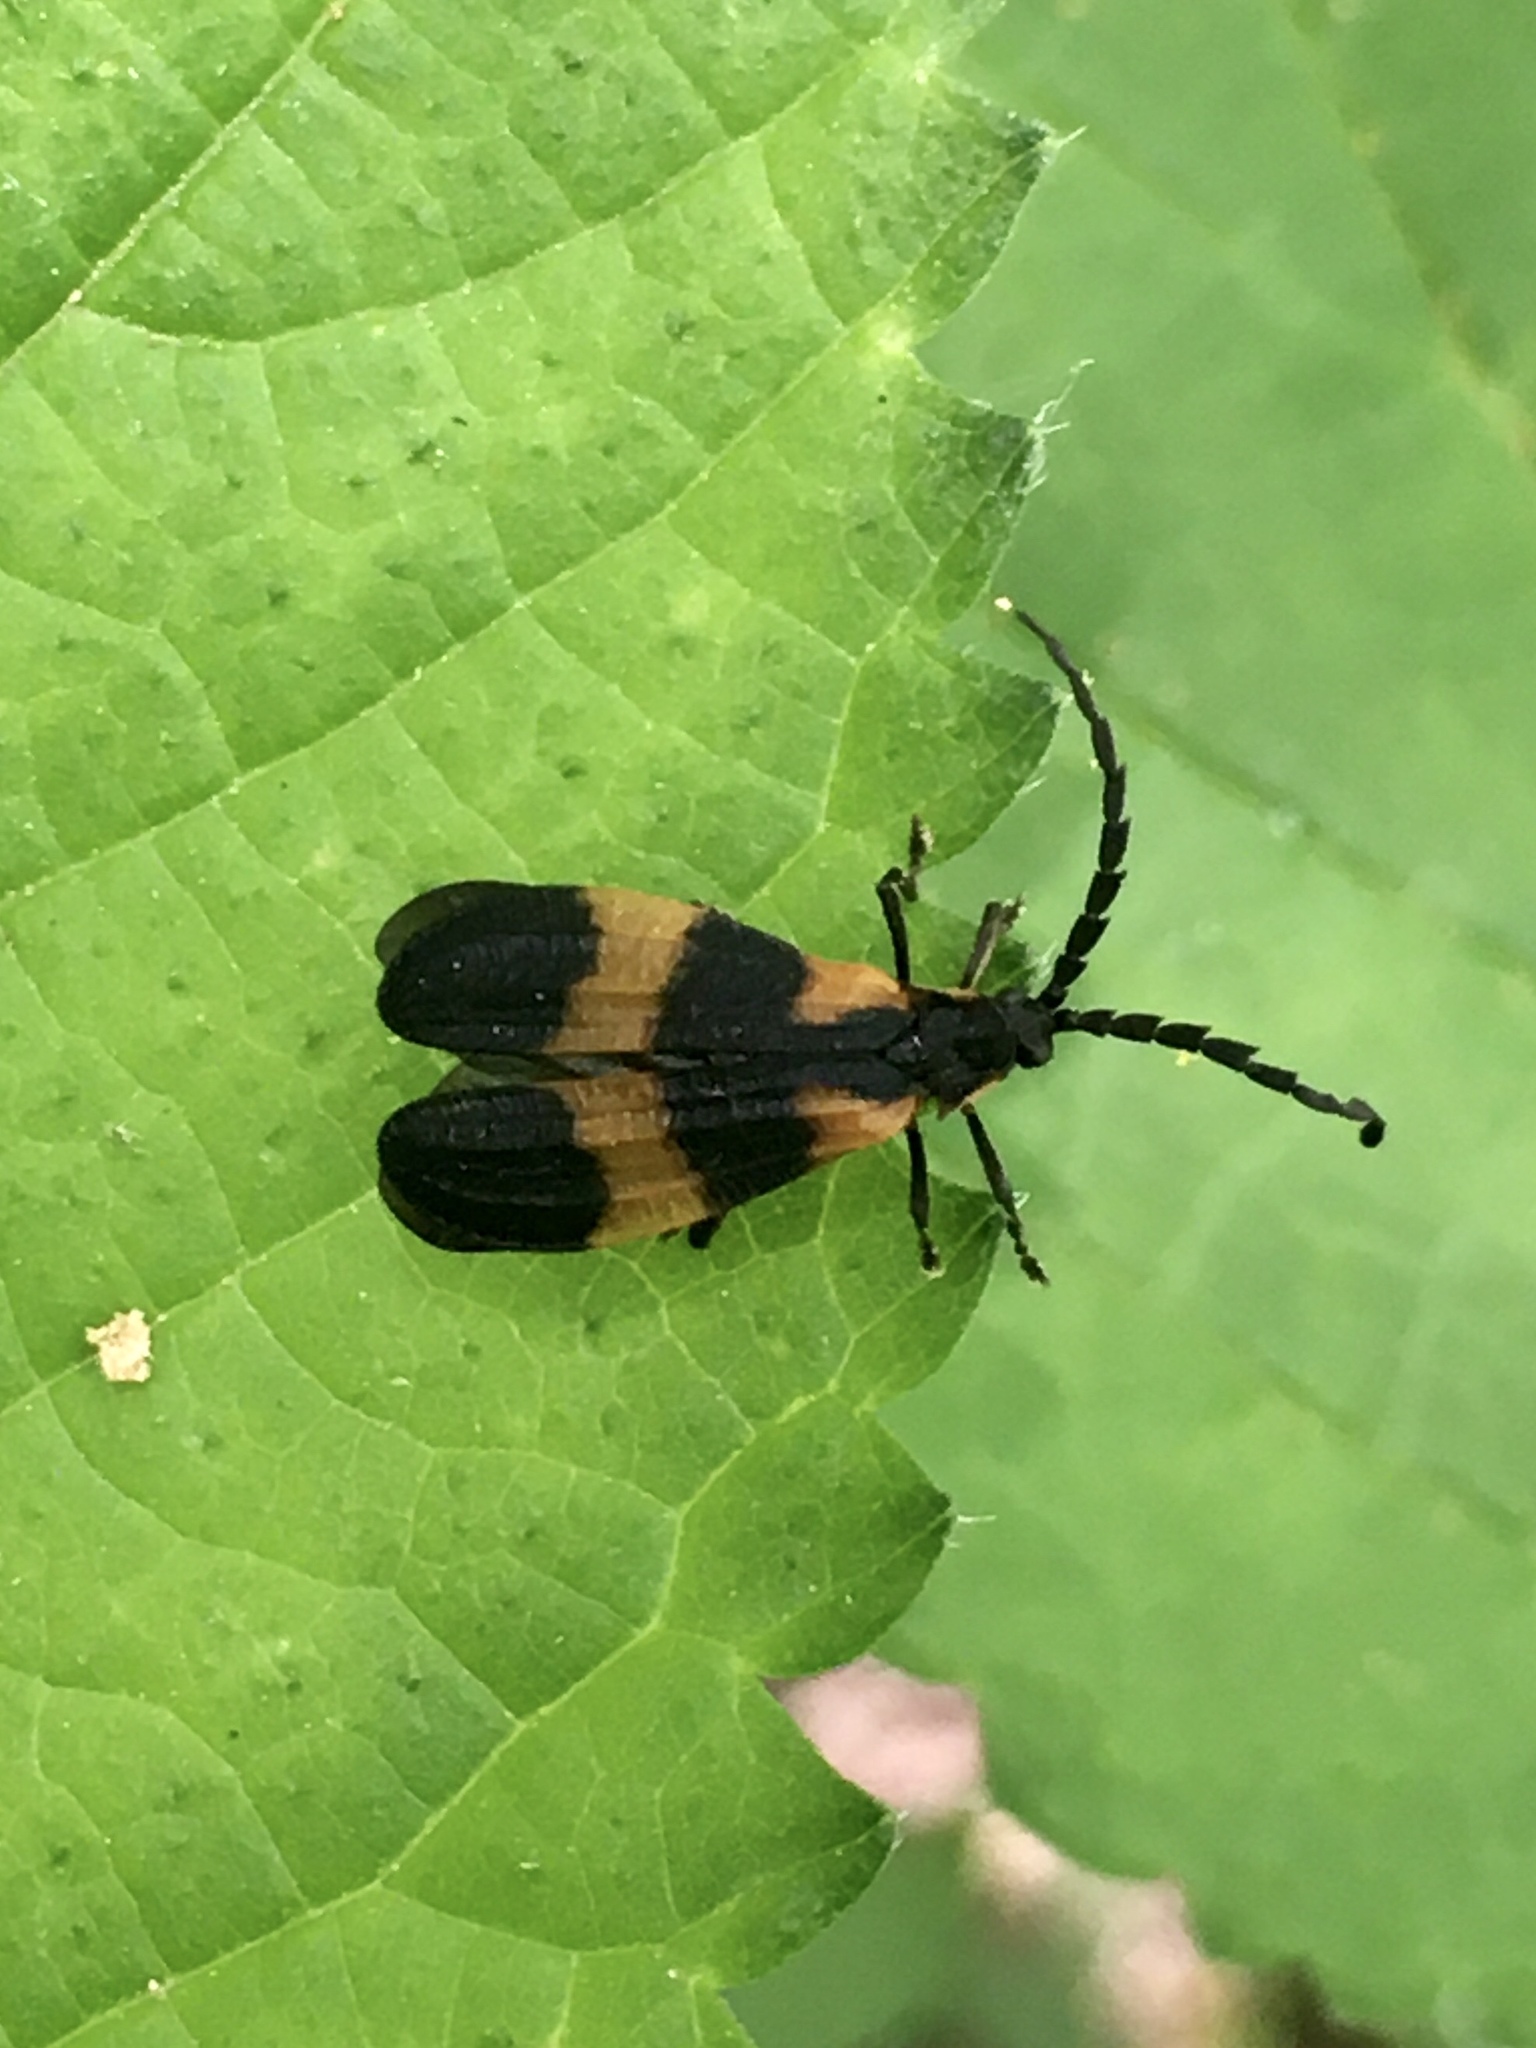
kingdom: Animalia
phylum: Arthropoda
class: Insecta
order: Coleoptera
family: Lycidae
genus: Calopteron
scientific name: Calopteron discrepans
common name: Banded net-winged beetle
